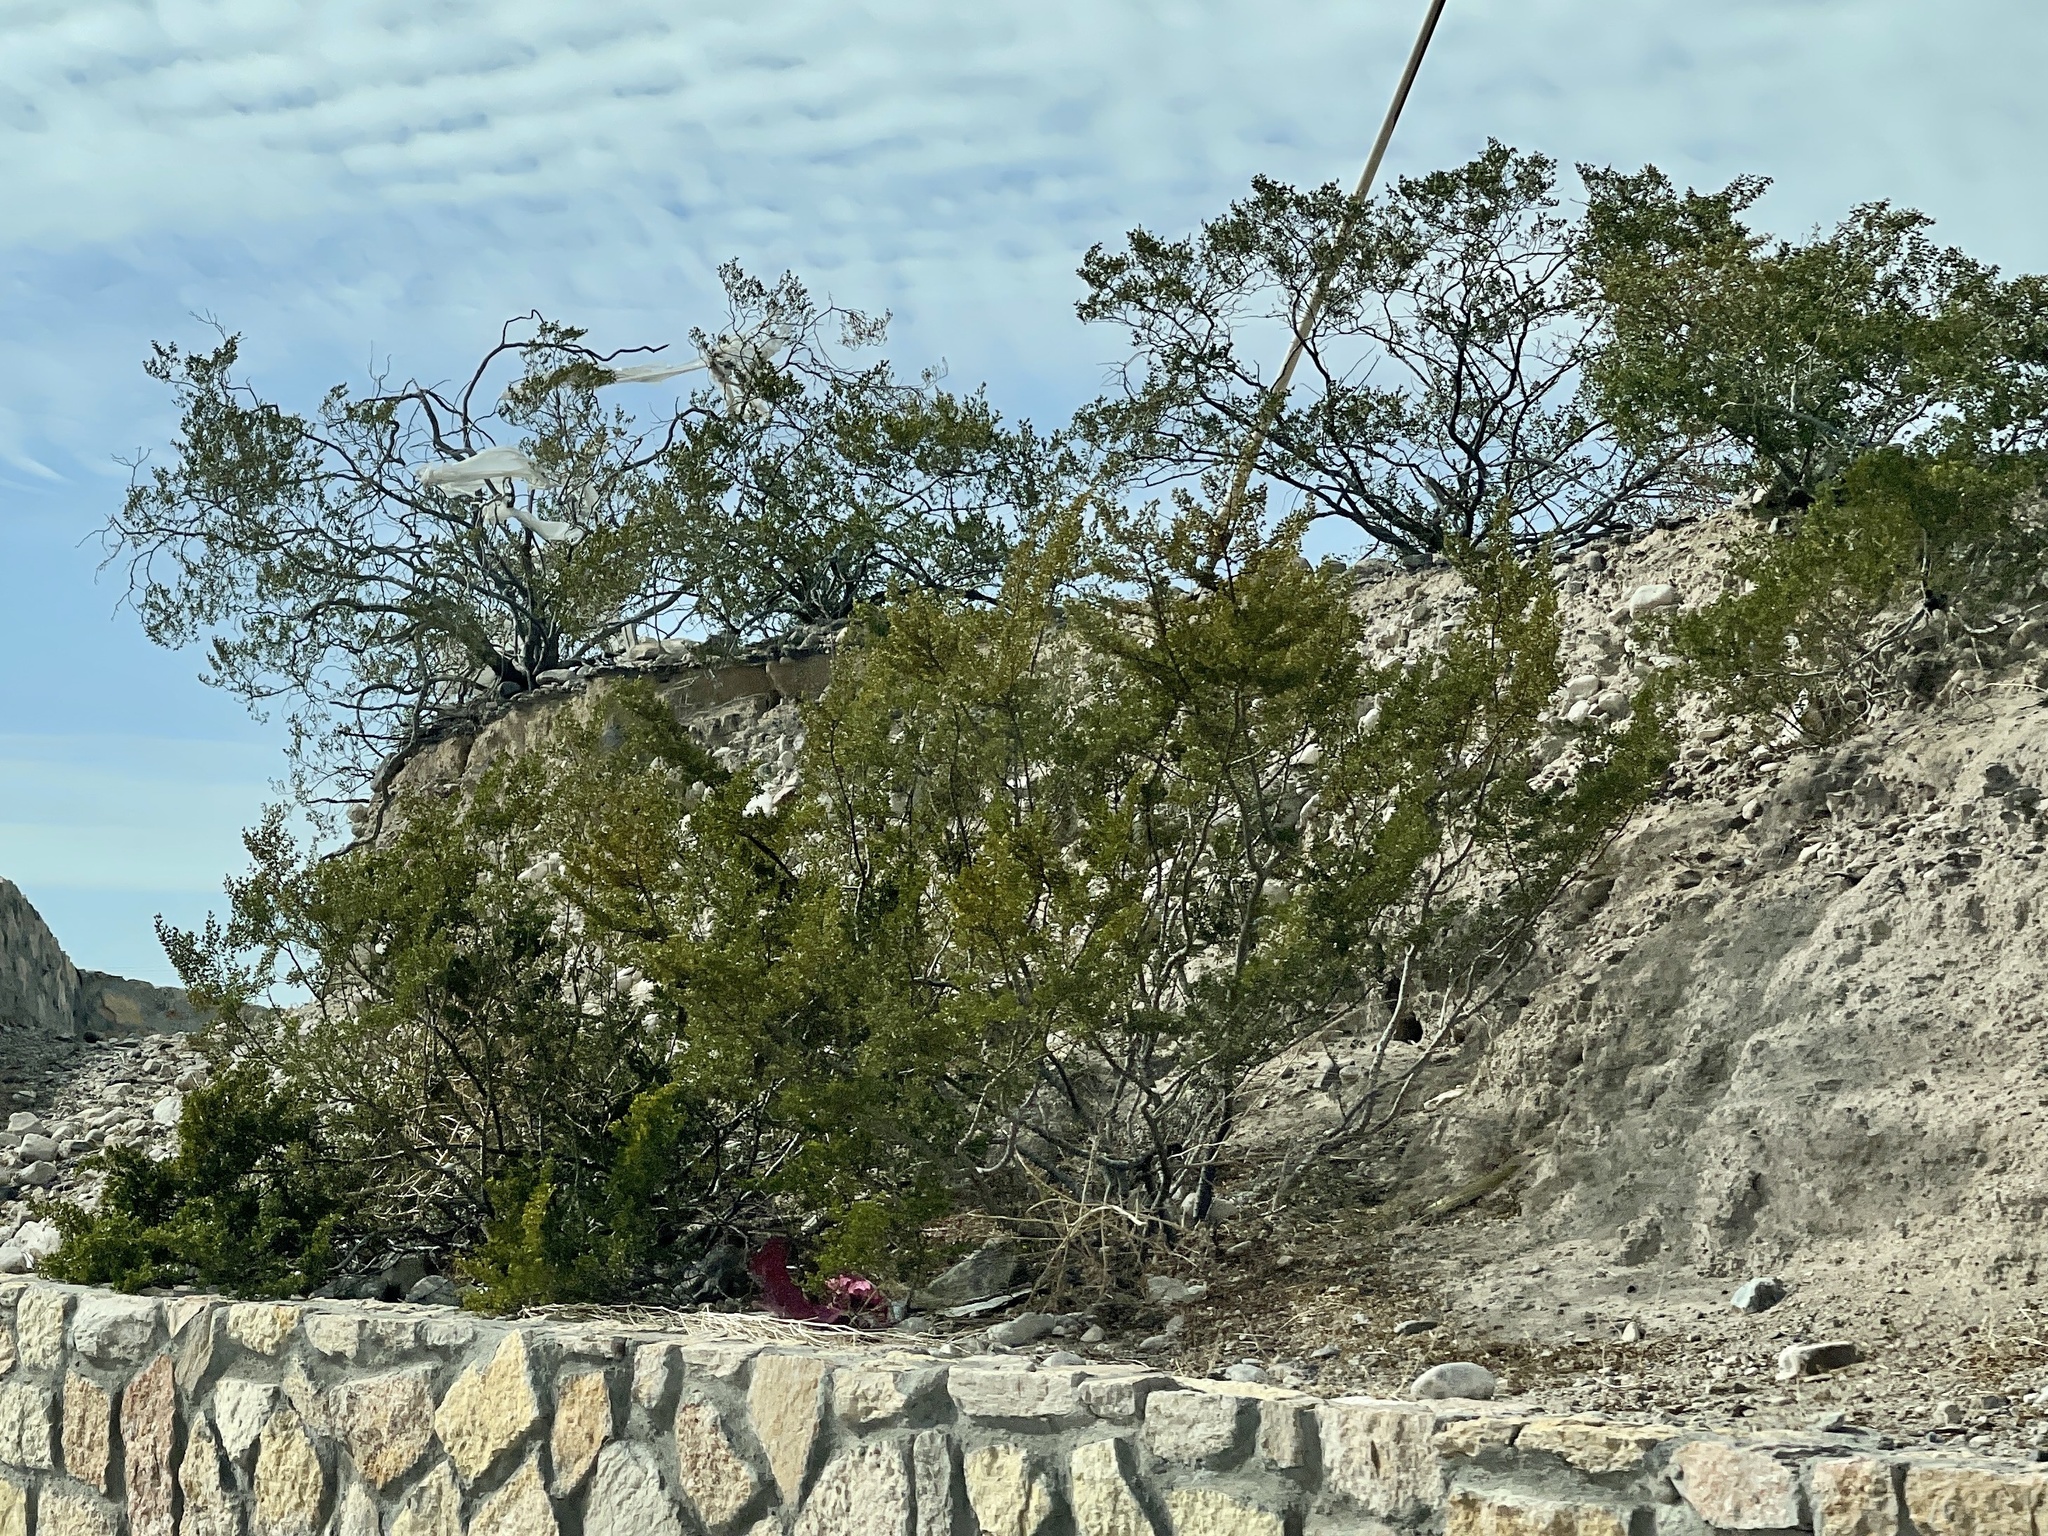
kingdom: Plantae
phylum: Tracheophyta
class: Magnoliopsida
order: Zygophyllales
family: Zygophyllaceae
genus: Larrea
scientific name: Larrea tridentata
